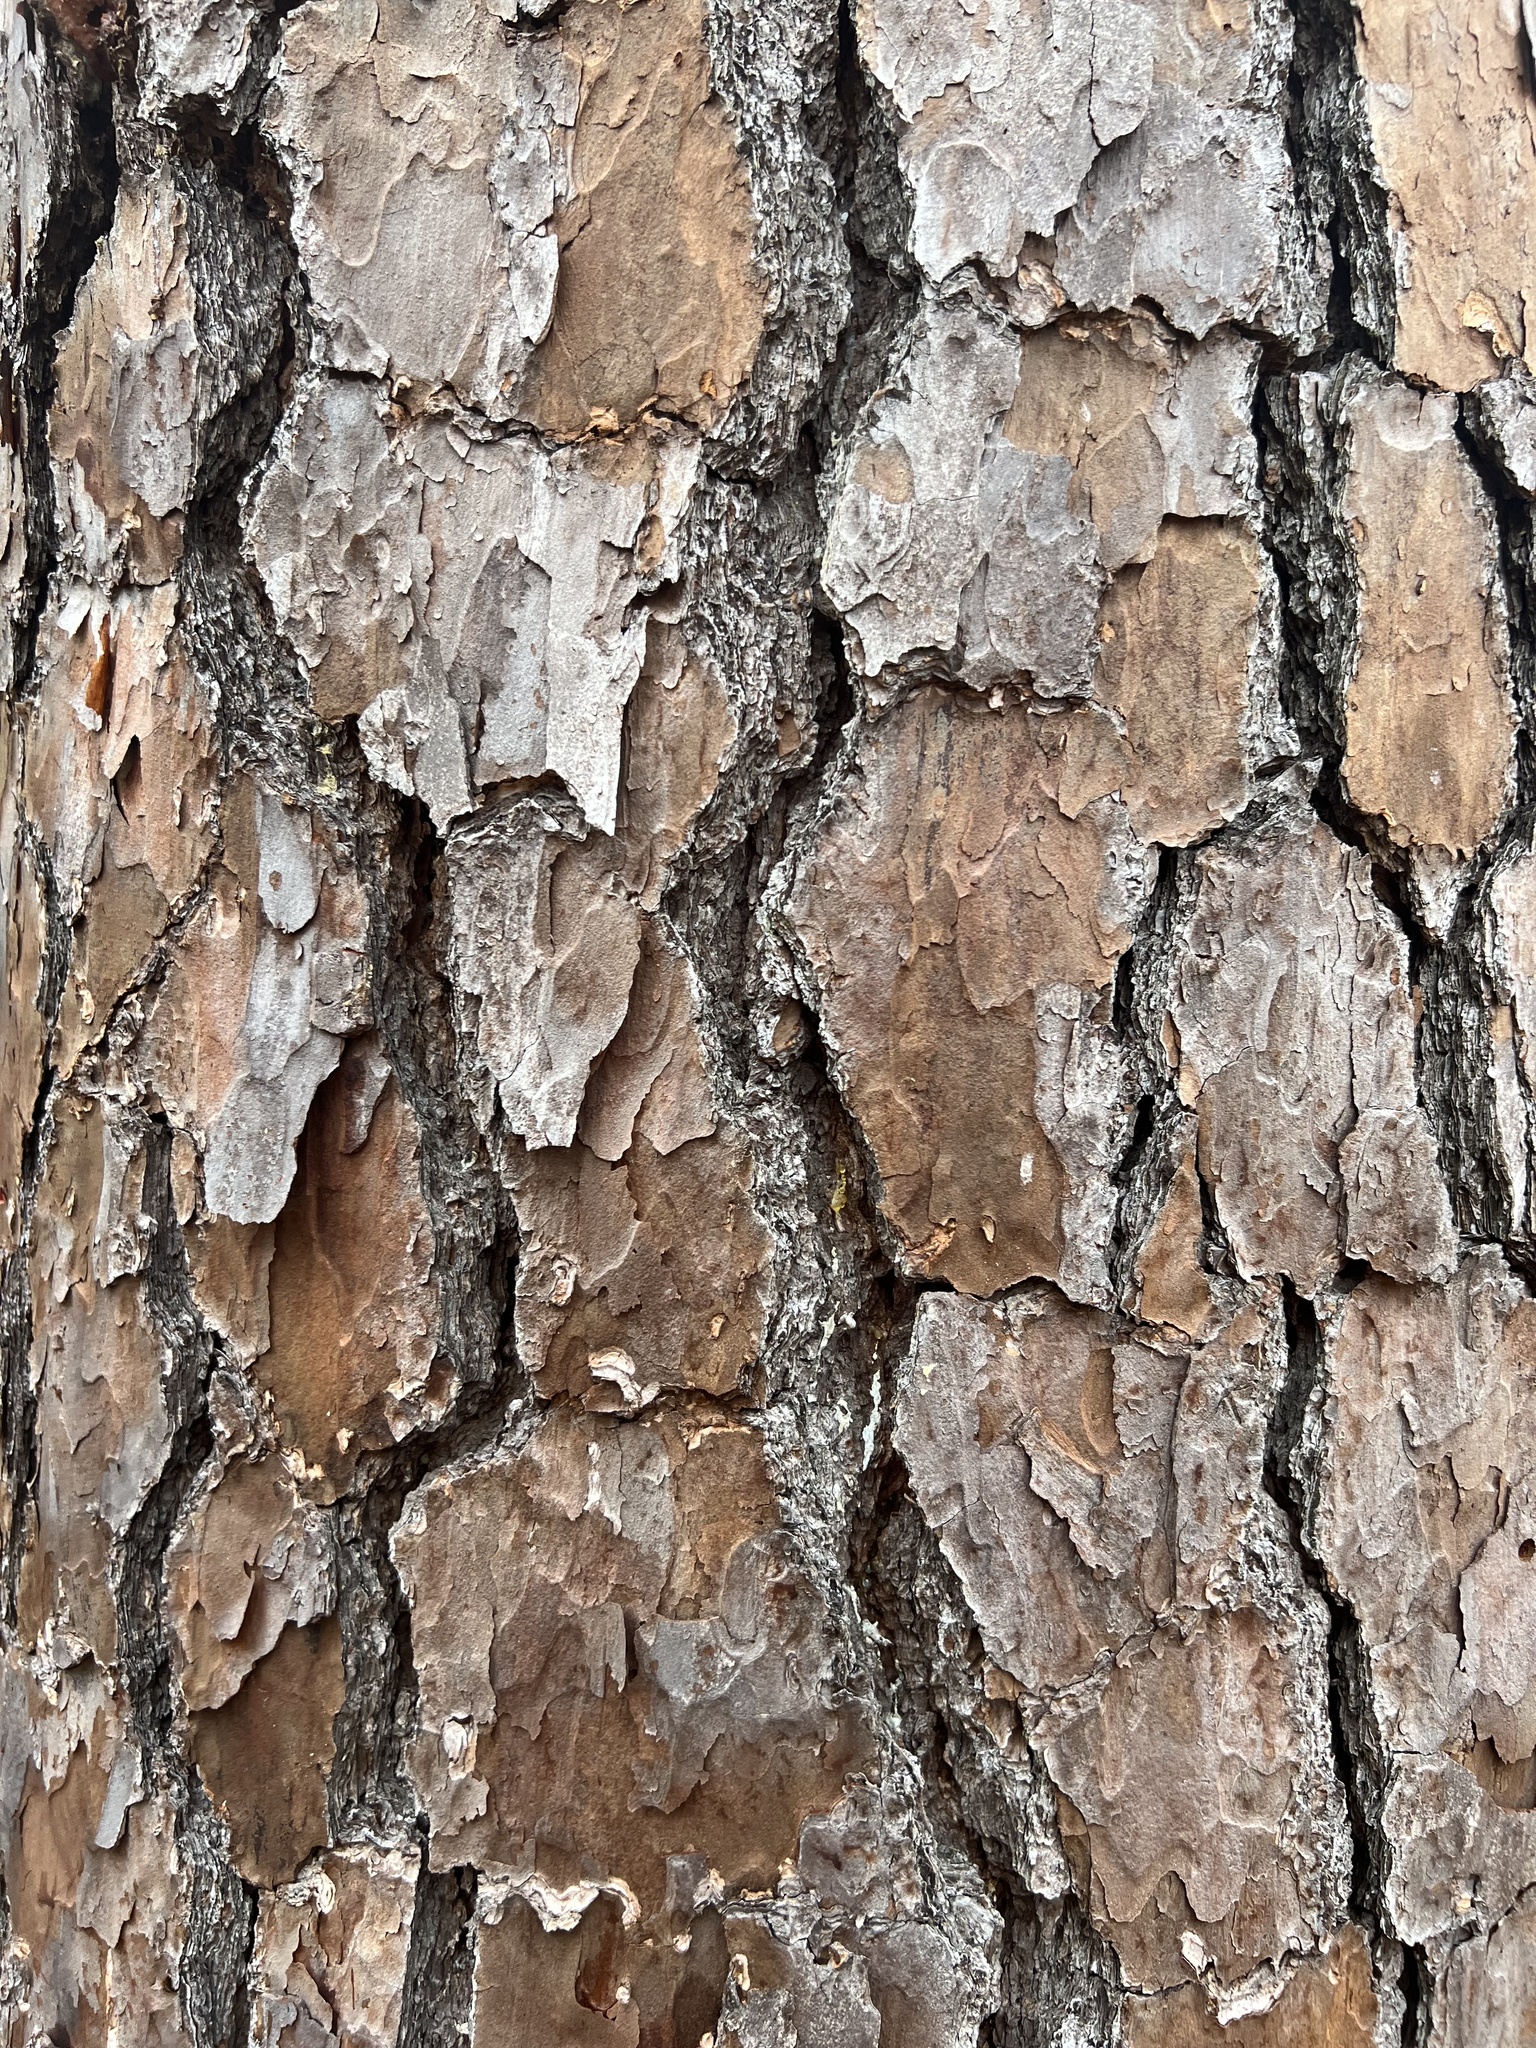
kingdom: Plantae
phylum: Tracheophyta
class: Pinopsida
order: Pinales
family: Pinaceae
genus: Pinus
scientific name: Pinus taeda
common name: Loblolly pine
